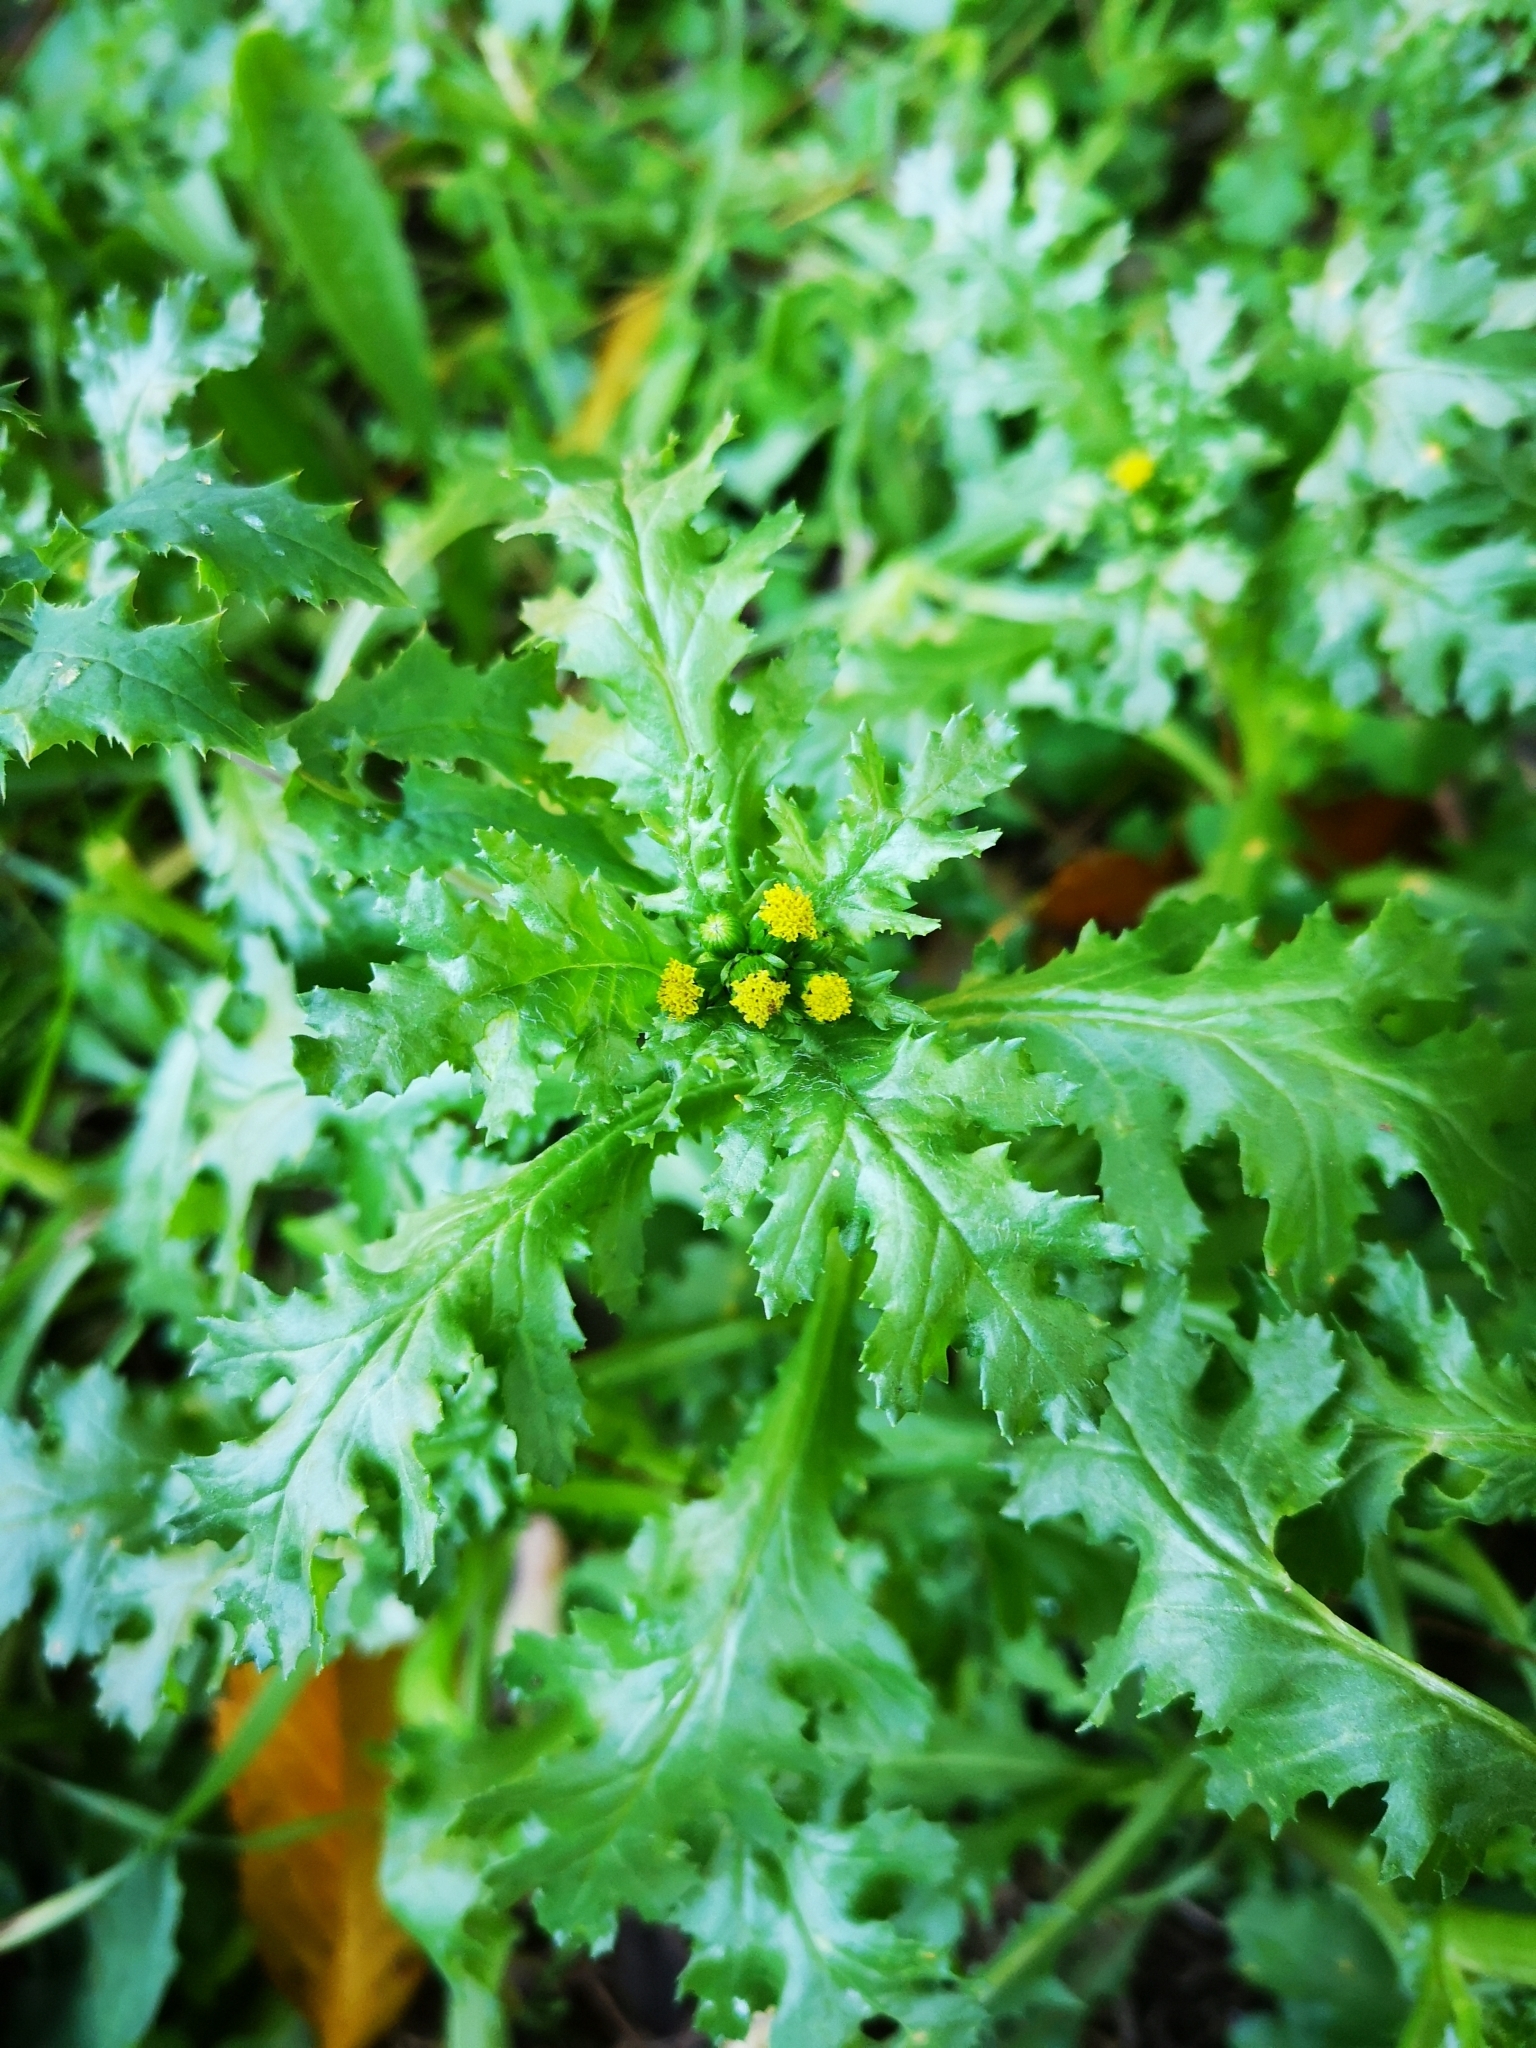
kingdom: Plantae
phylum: Tracheophyta
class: Magnoliopsida
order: Asterales
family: Asteraceae
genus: Senecio
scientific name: Senecio vulgaris
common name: Old-man-in-the-spring
